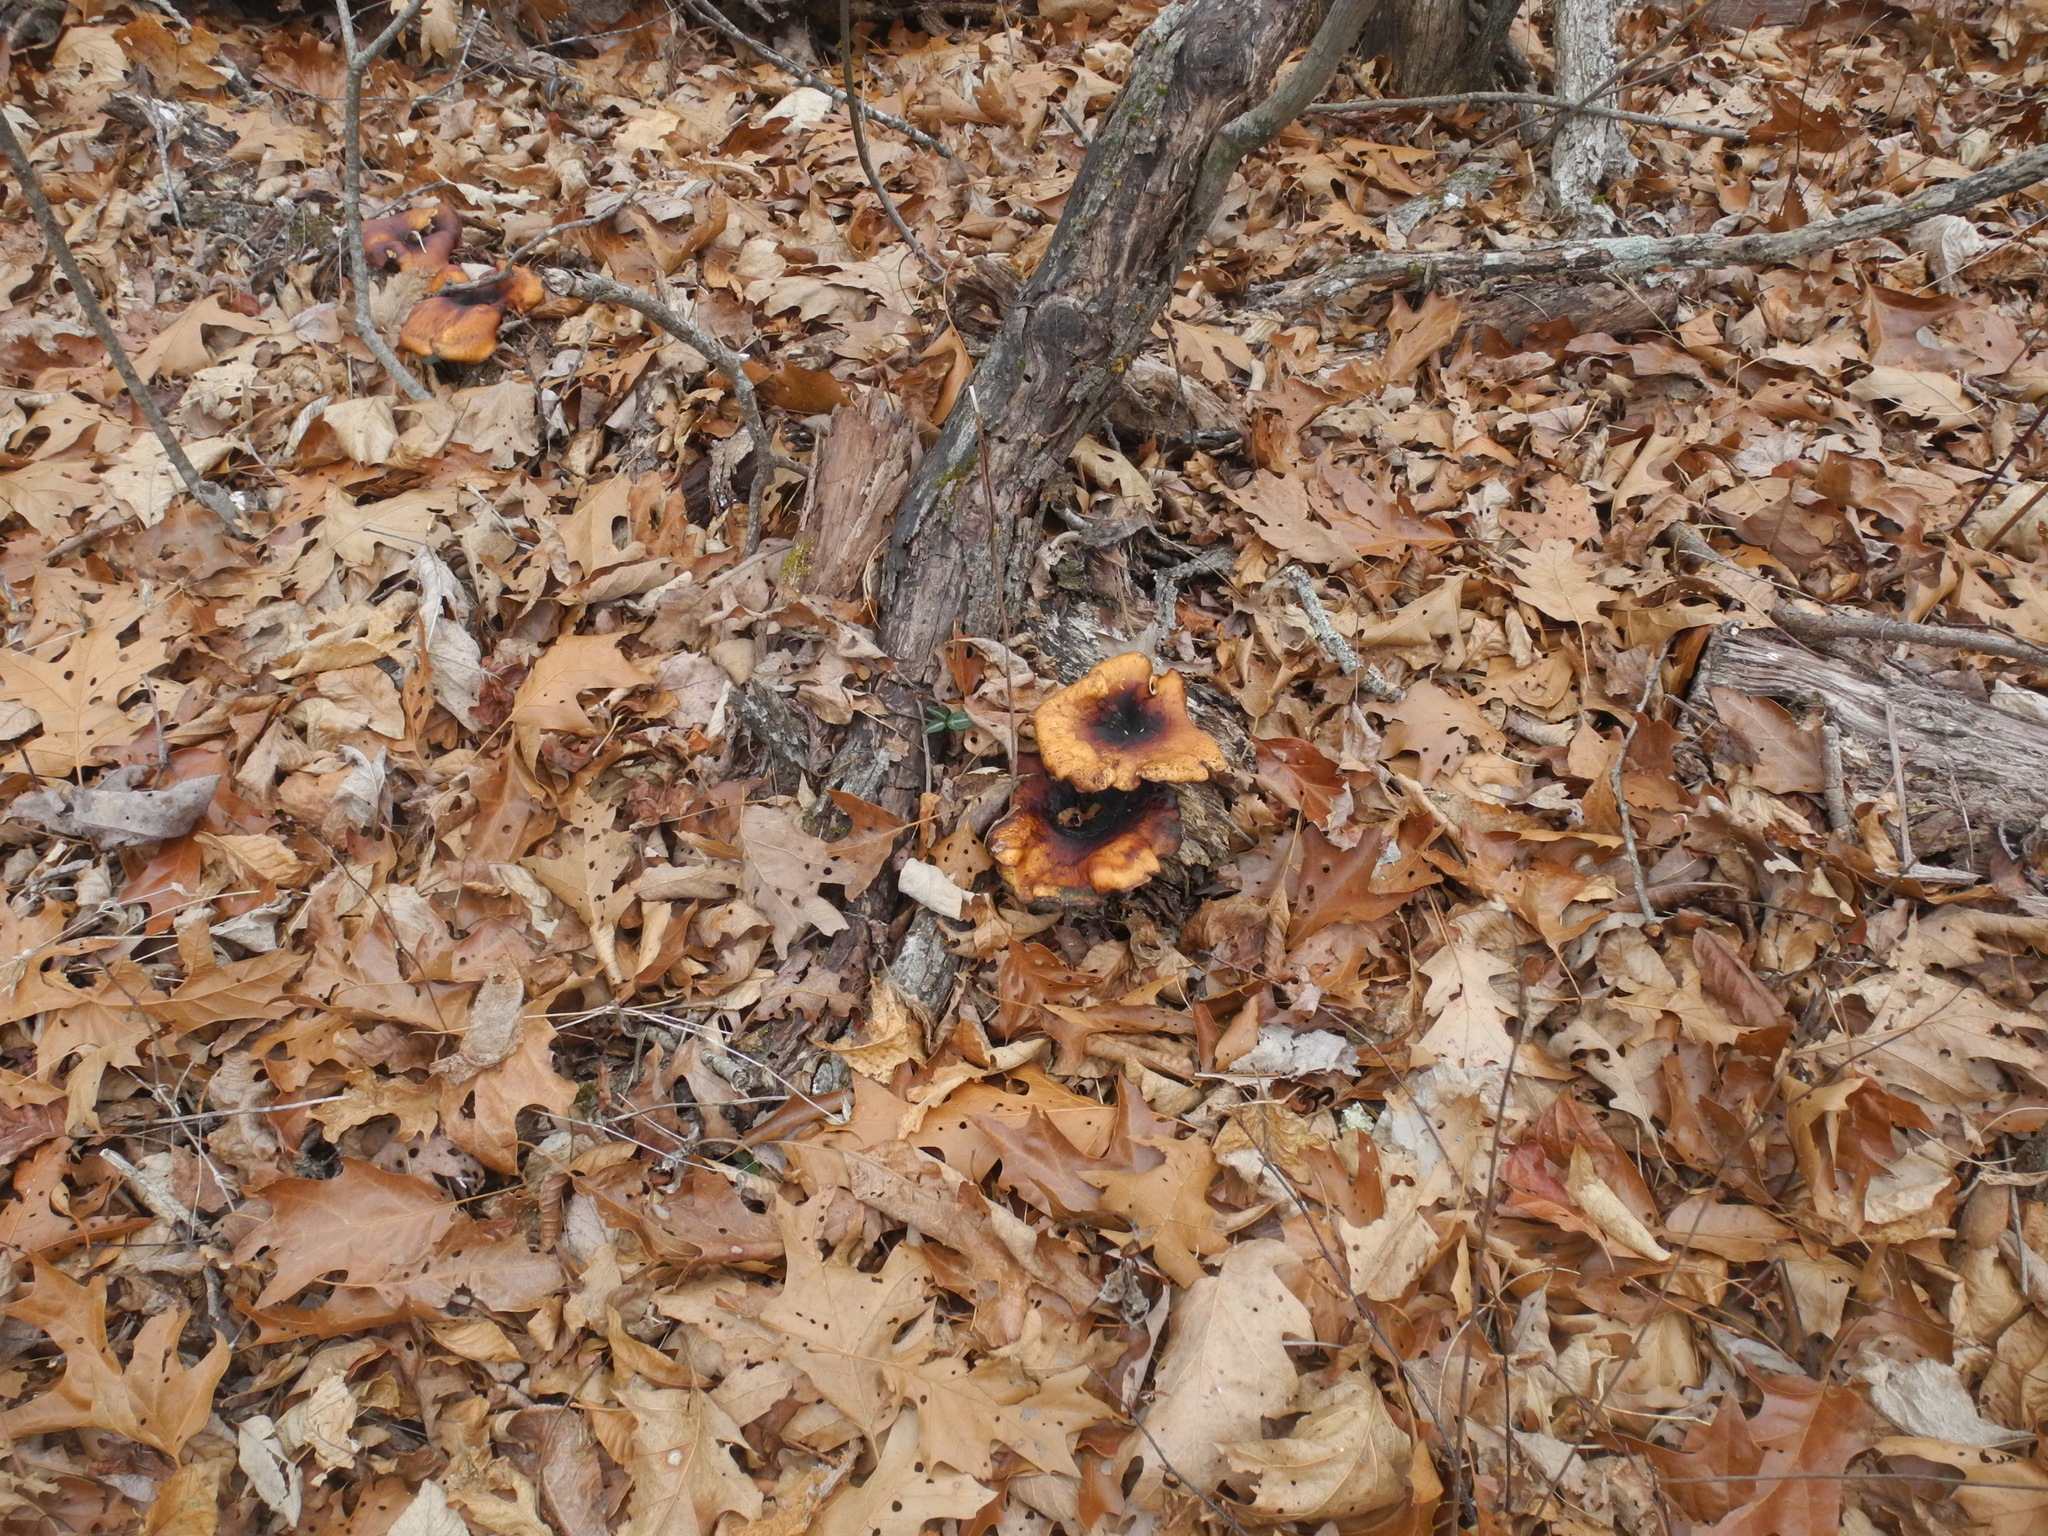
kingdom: Fungi
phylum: Basidiomycota
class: Agaricomycetes
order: Polyporales
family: Polyporaceae
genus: Picipes
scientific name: Picipes badius
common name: Bay polypore
